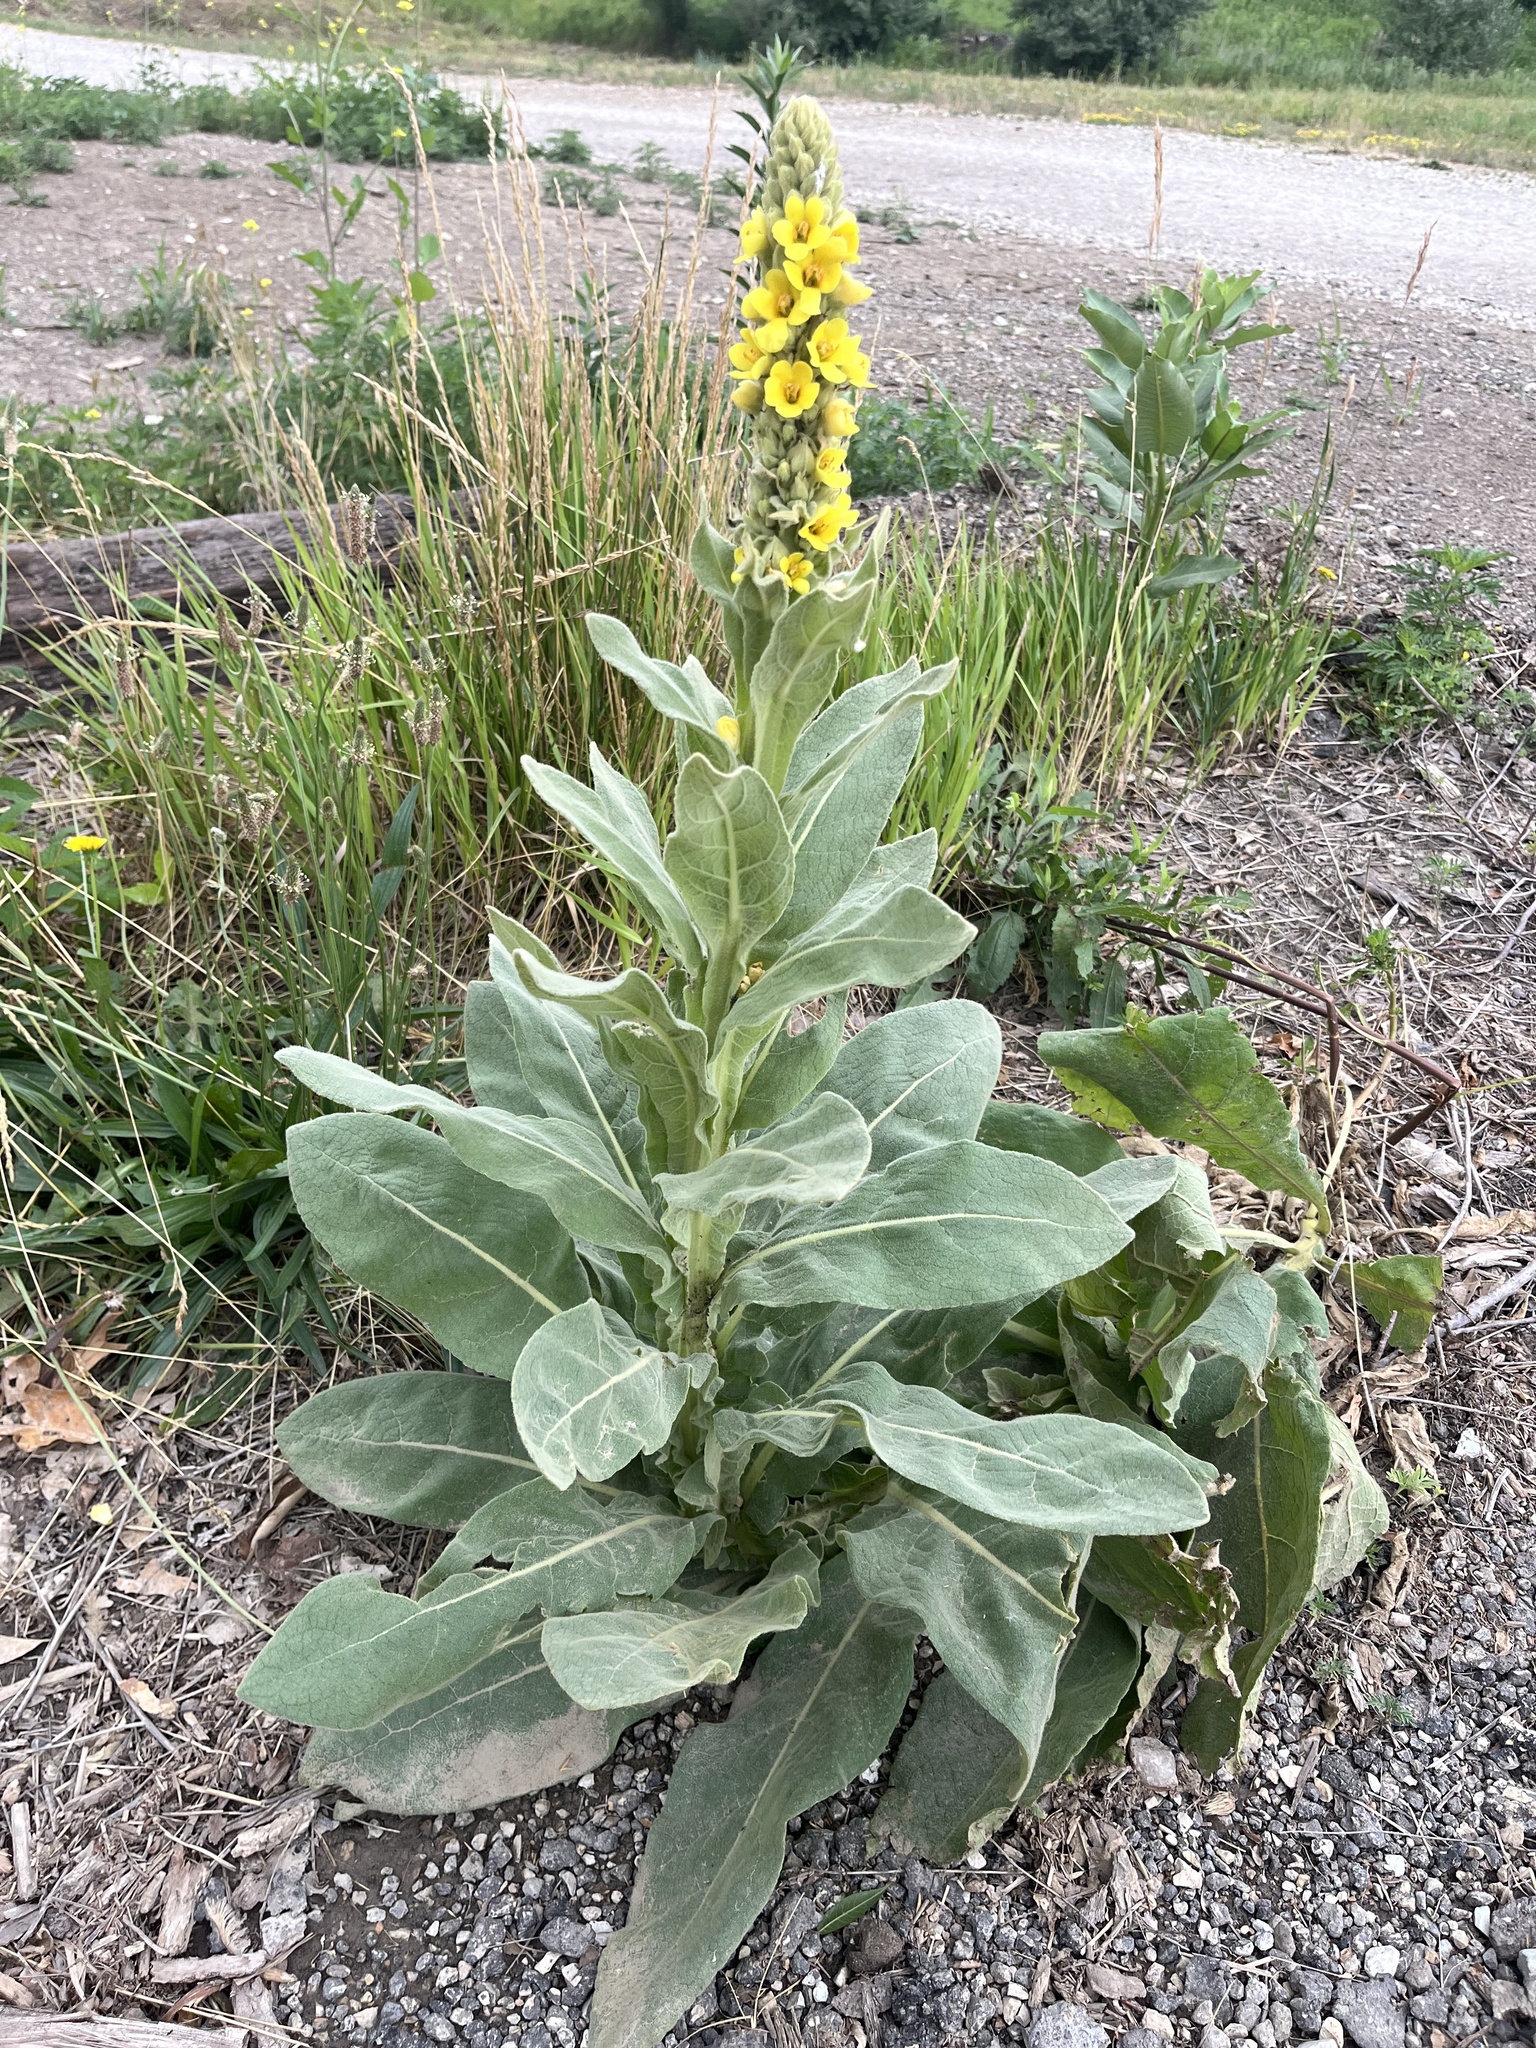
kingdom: Plantae
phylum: Tracheophyta
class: Magnoliopsida
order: Lamiales
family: Scrophulariaceae
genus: Verbascum
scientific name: Verbascum thapsus
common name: Common mullein
